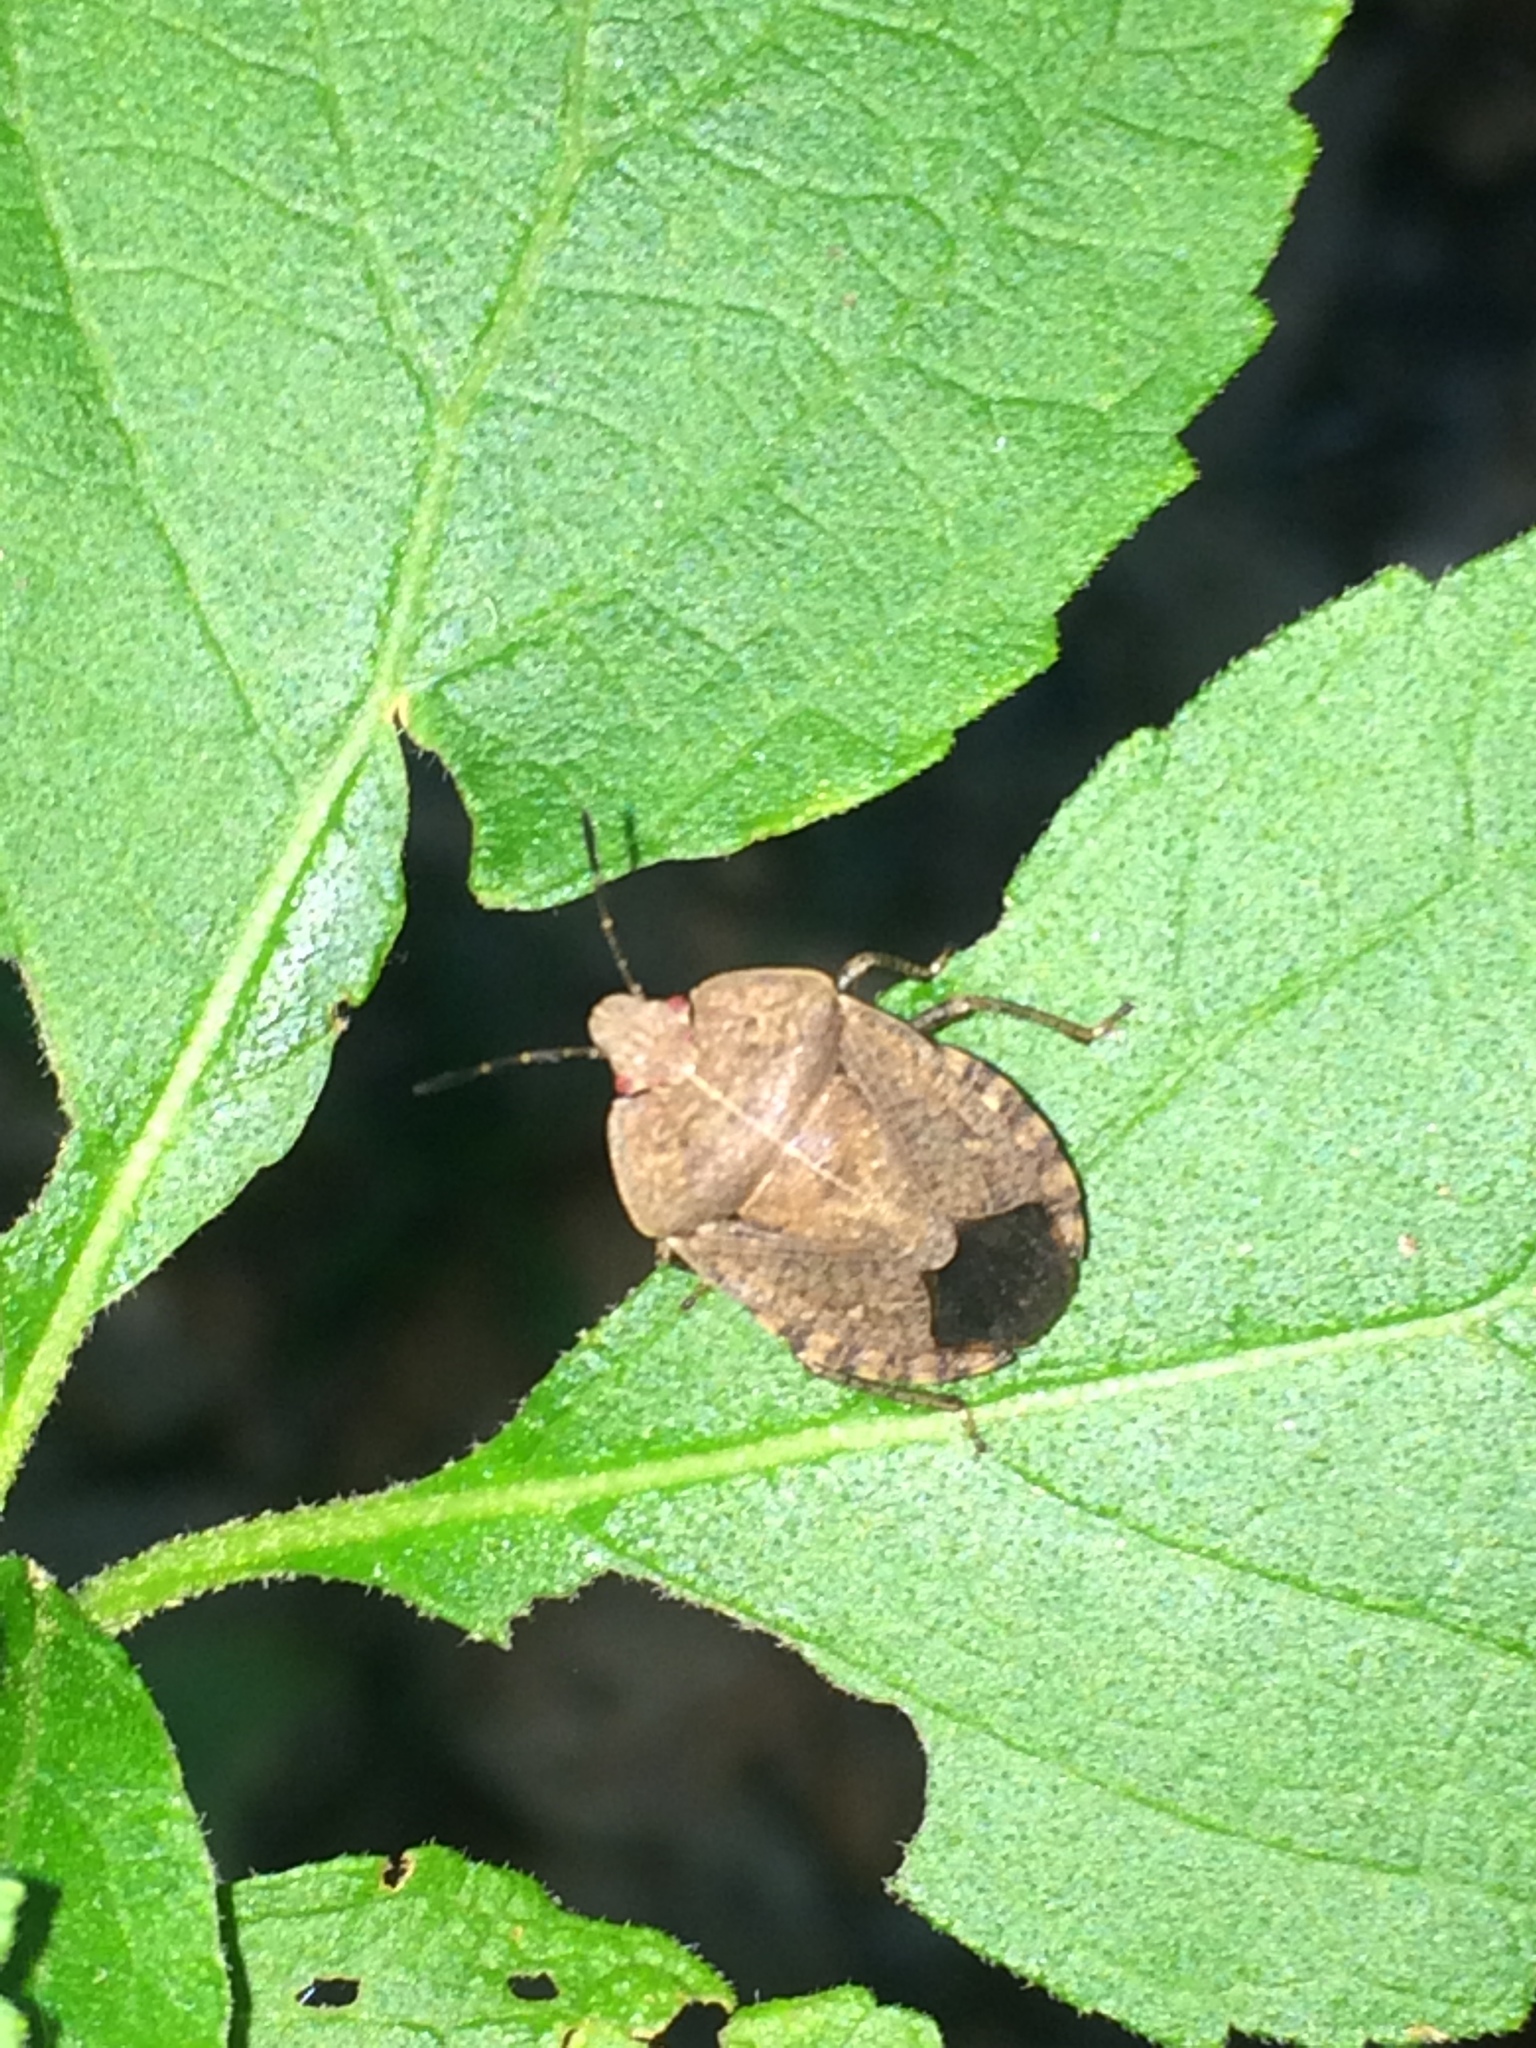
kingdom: Animalia
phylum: Arthropoda
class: Insecta
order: Hemiptera
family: Pentatomidae
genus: Menecles
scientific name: Menecles insertus
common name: Elf shoe stink bug
